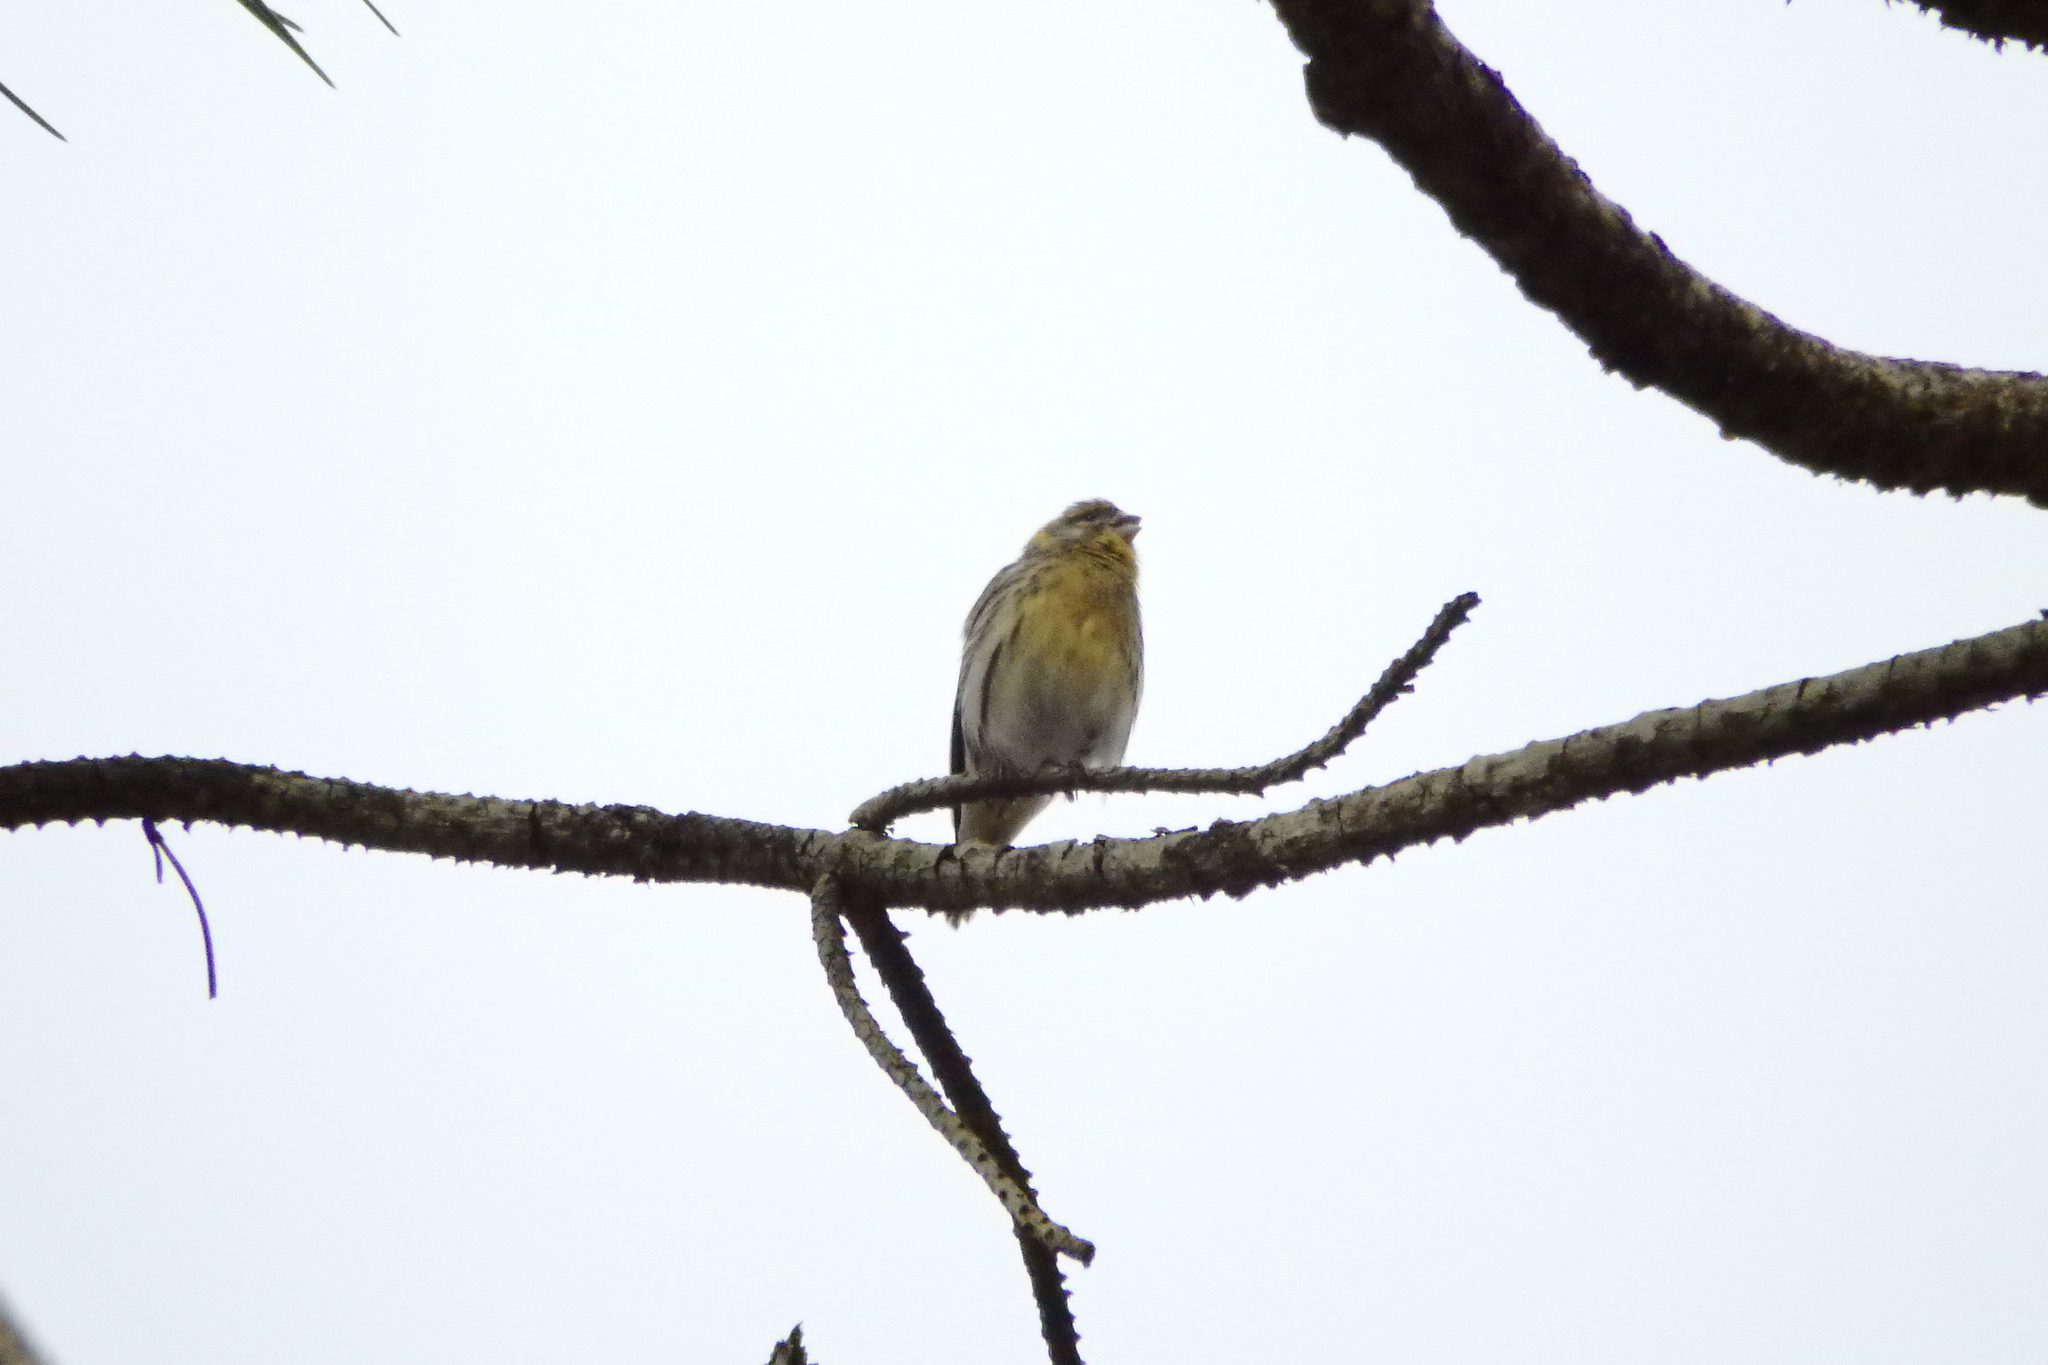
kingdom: Animalia
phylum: Chordata
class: Aves
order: Passeriformes
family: Fringillidae
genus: Serinus
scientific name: Serinus serinus
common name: European serin
